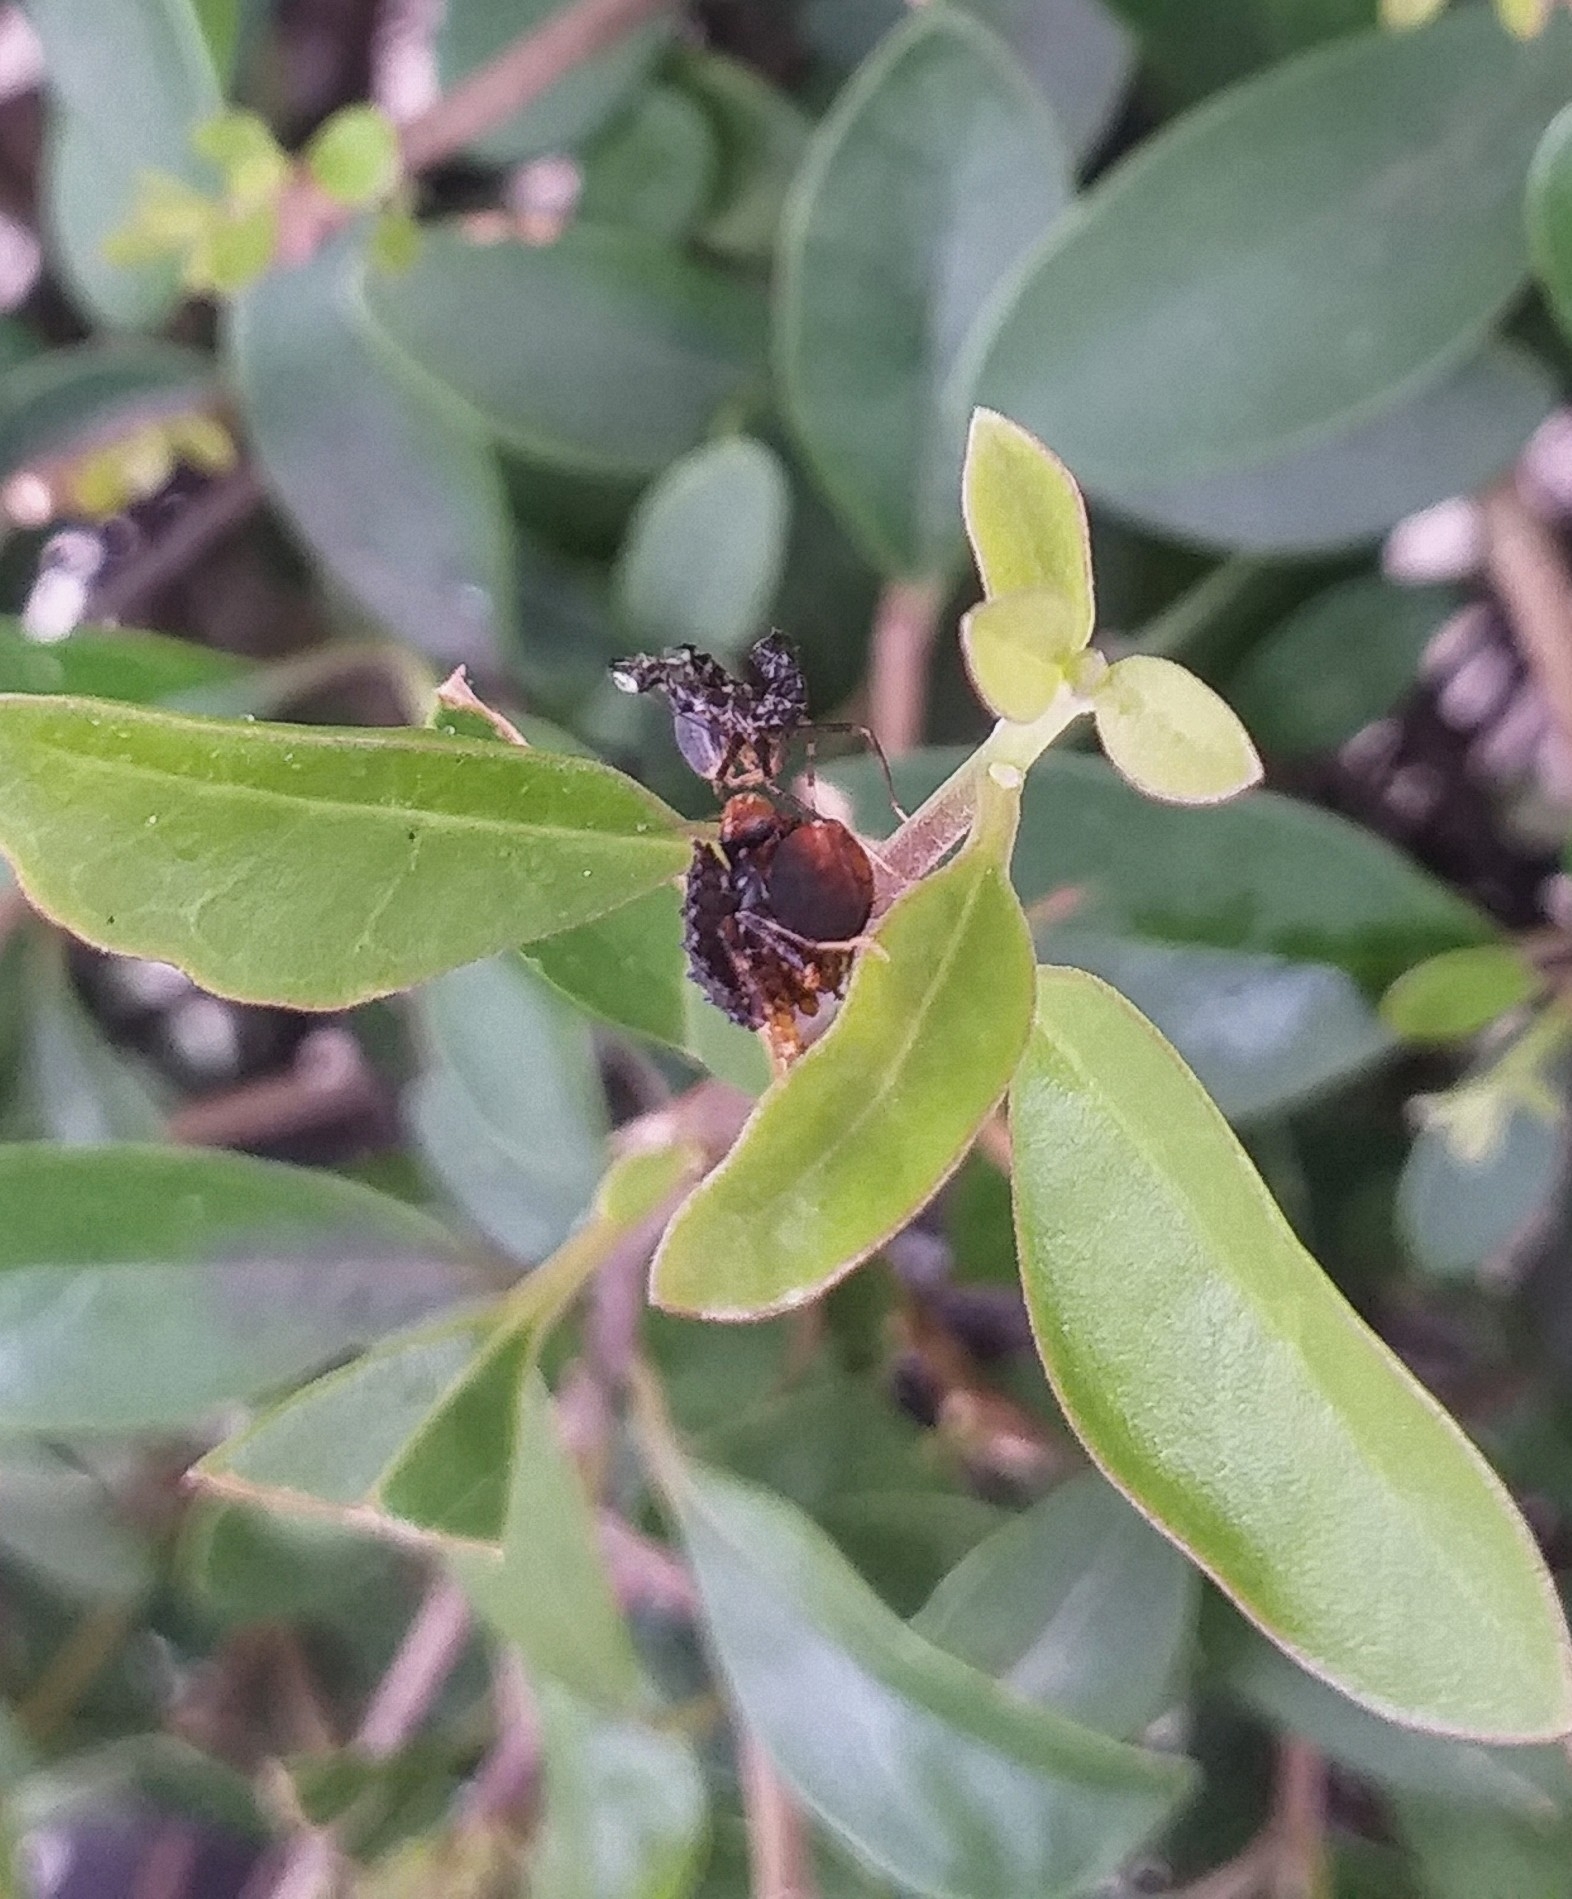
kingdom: Animalia
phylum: Arthropoda
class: Insecta
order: Mantodea
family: Hymenopodidae
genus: Hestiasula
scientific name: Hestiasula brunneriana
